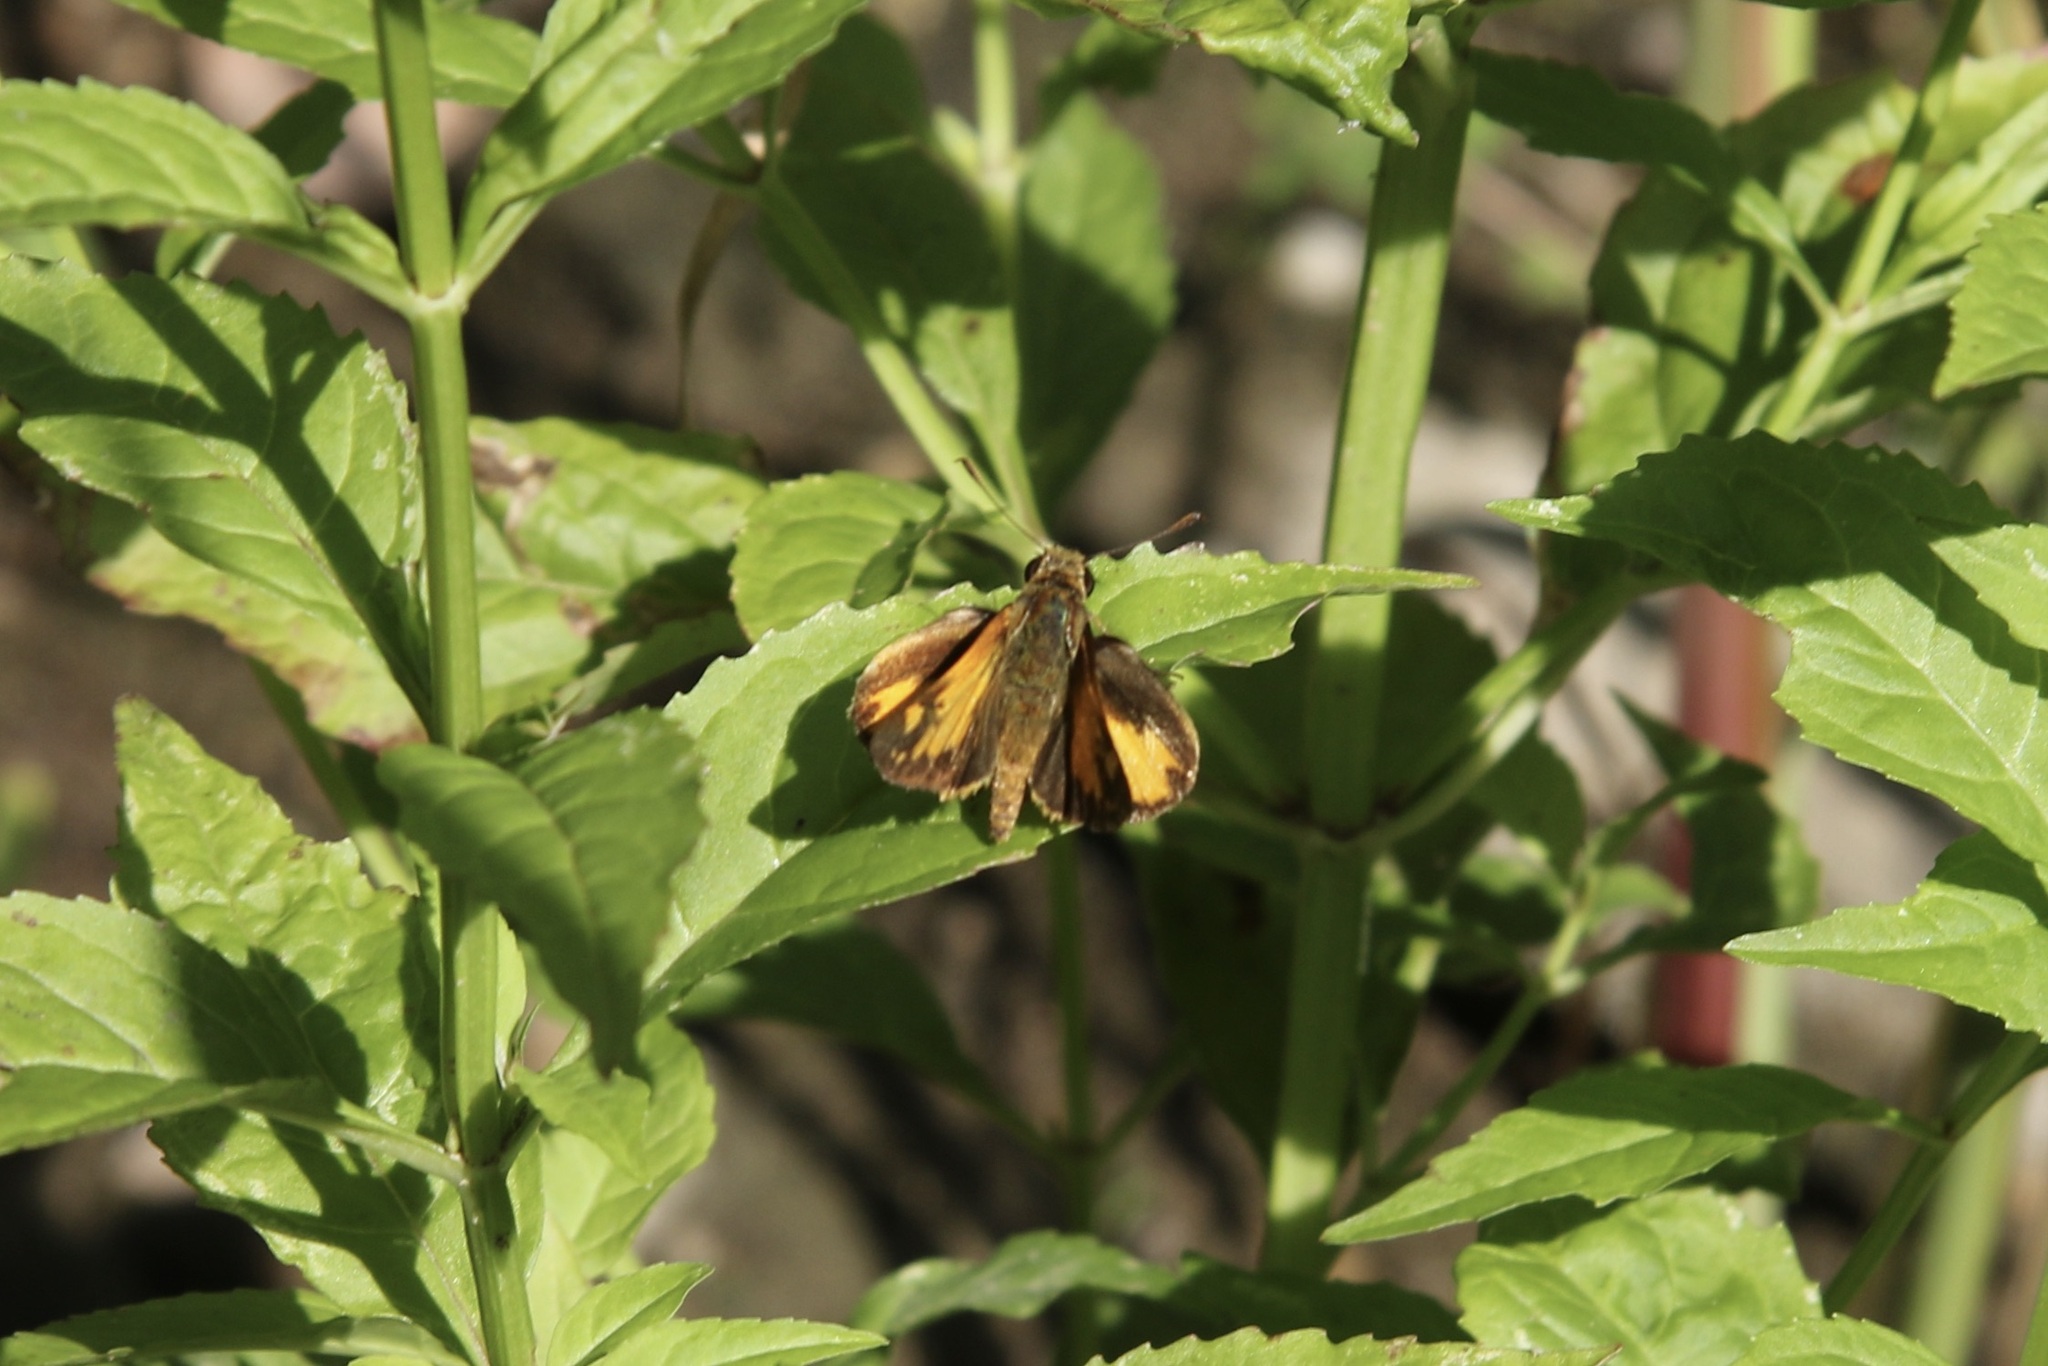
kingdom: Animalia
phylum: Arthropoda
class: Insecta
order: Lepidoptera
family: Hesperiidae
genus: Lon
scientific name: Lon zabulon
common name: Zabulon skipper
